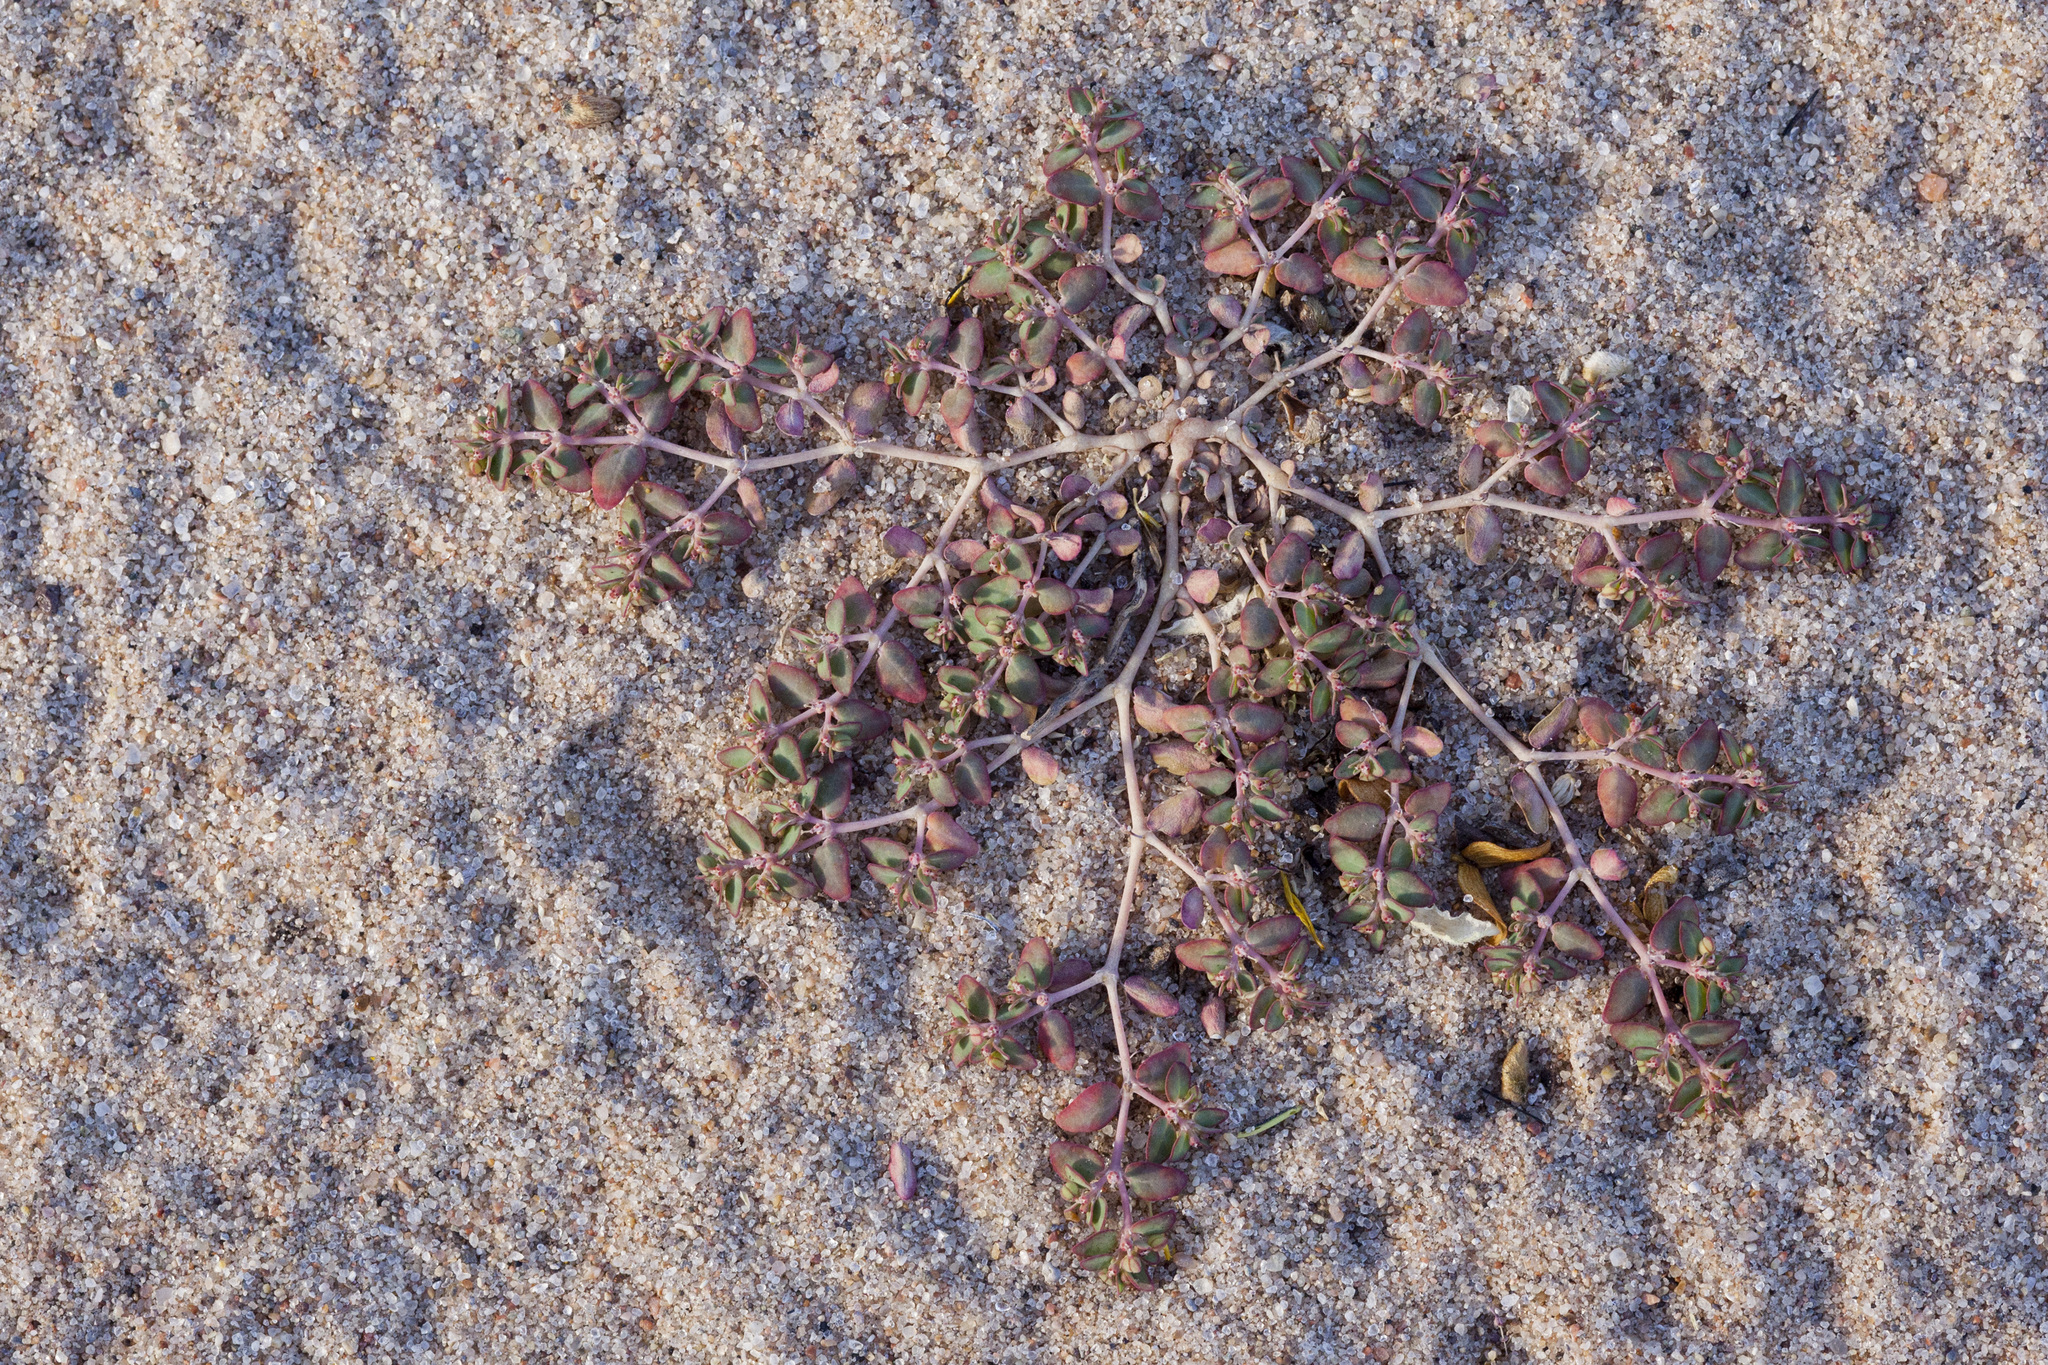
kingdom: Plantae
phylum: Tracheophyta
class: Magnoliopsida
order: Malpighiales
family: Euphorbiaceae
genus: Euphorbia
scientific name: Euphorbia micromera
